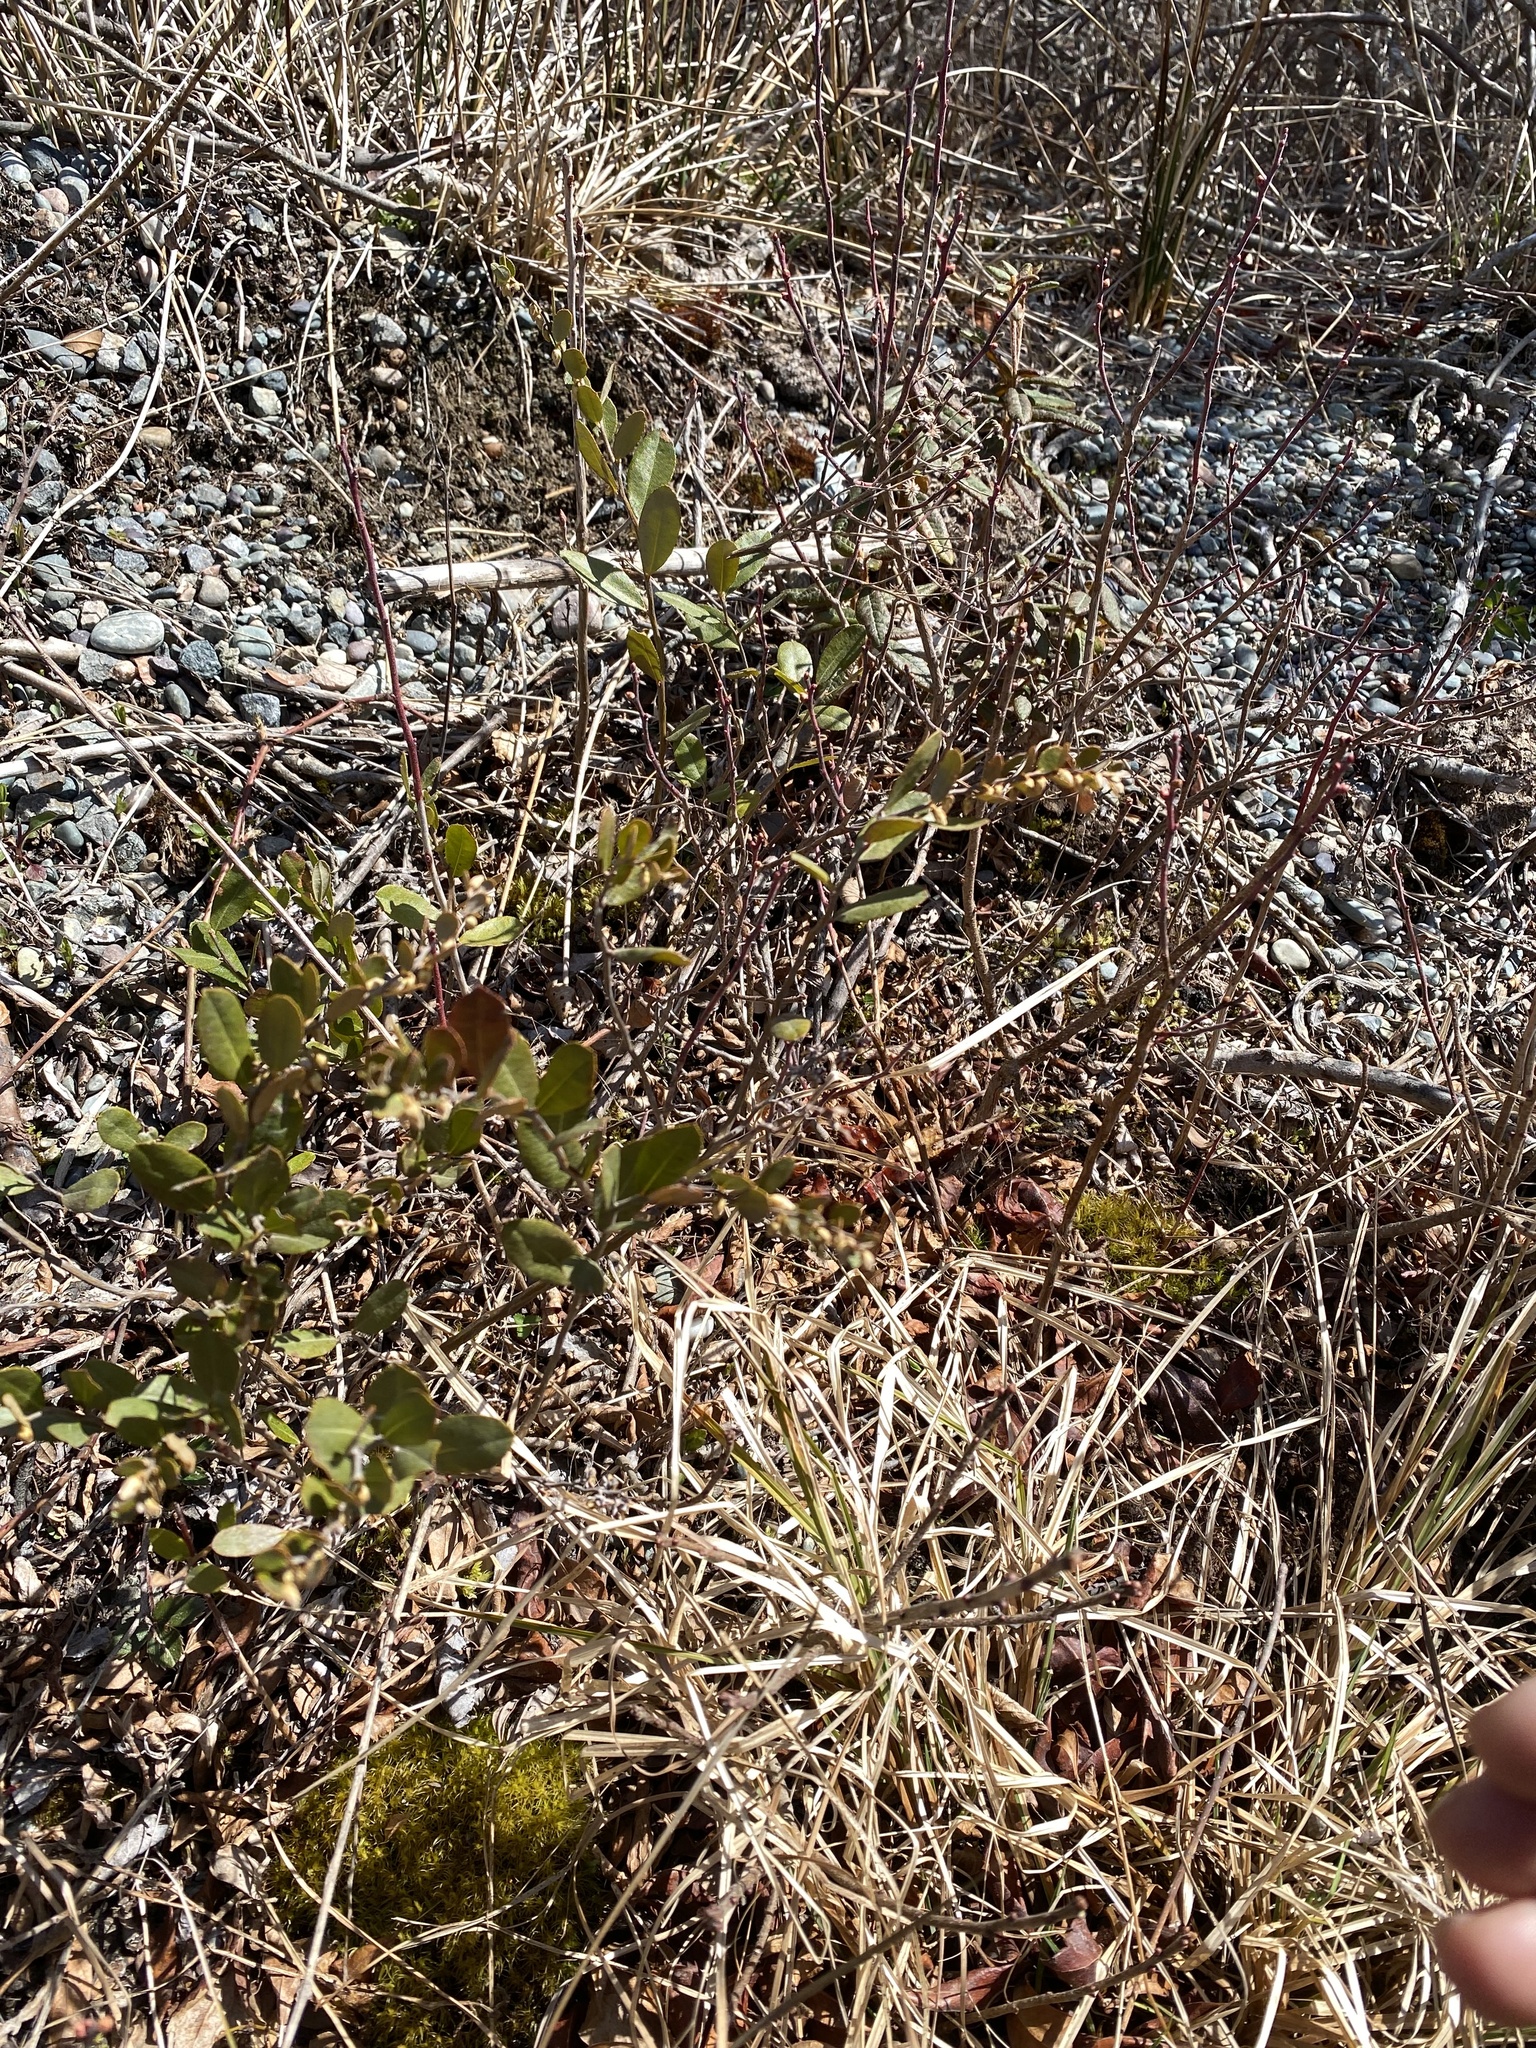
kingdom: Plantae
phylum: Tracheophyta
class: Magnoliopsida
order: Ericales
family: Ericaceae
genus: Chamaedaphne
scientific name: Chamaedaphne calyculata
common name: Leatherleaf
